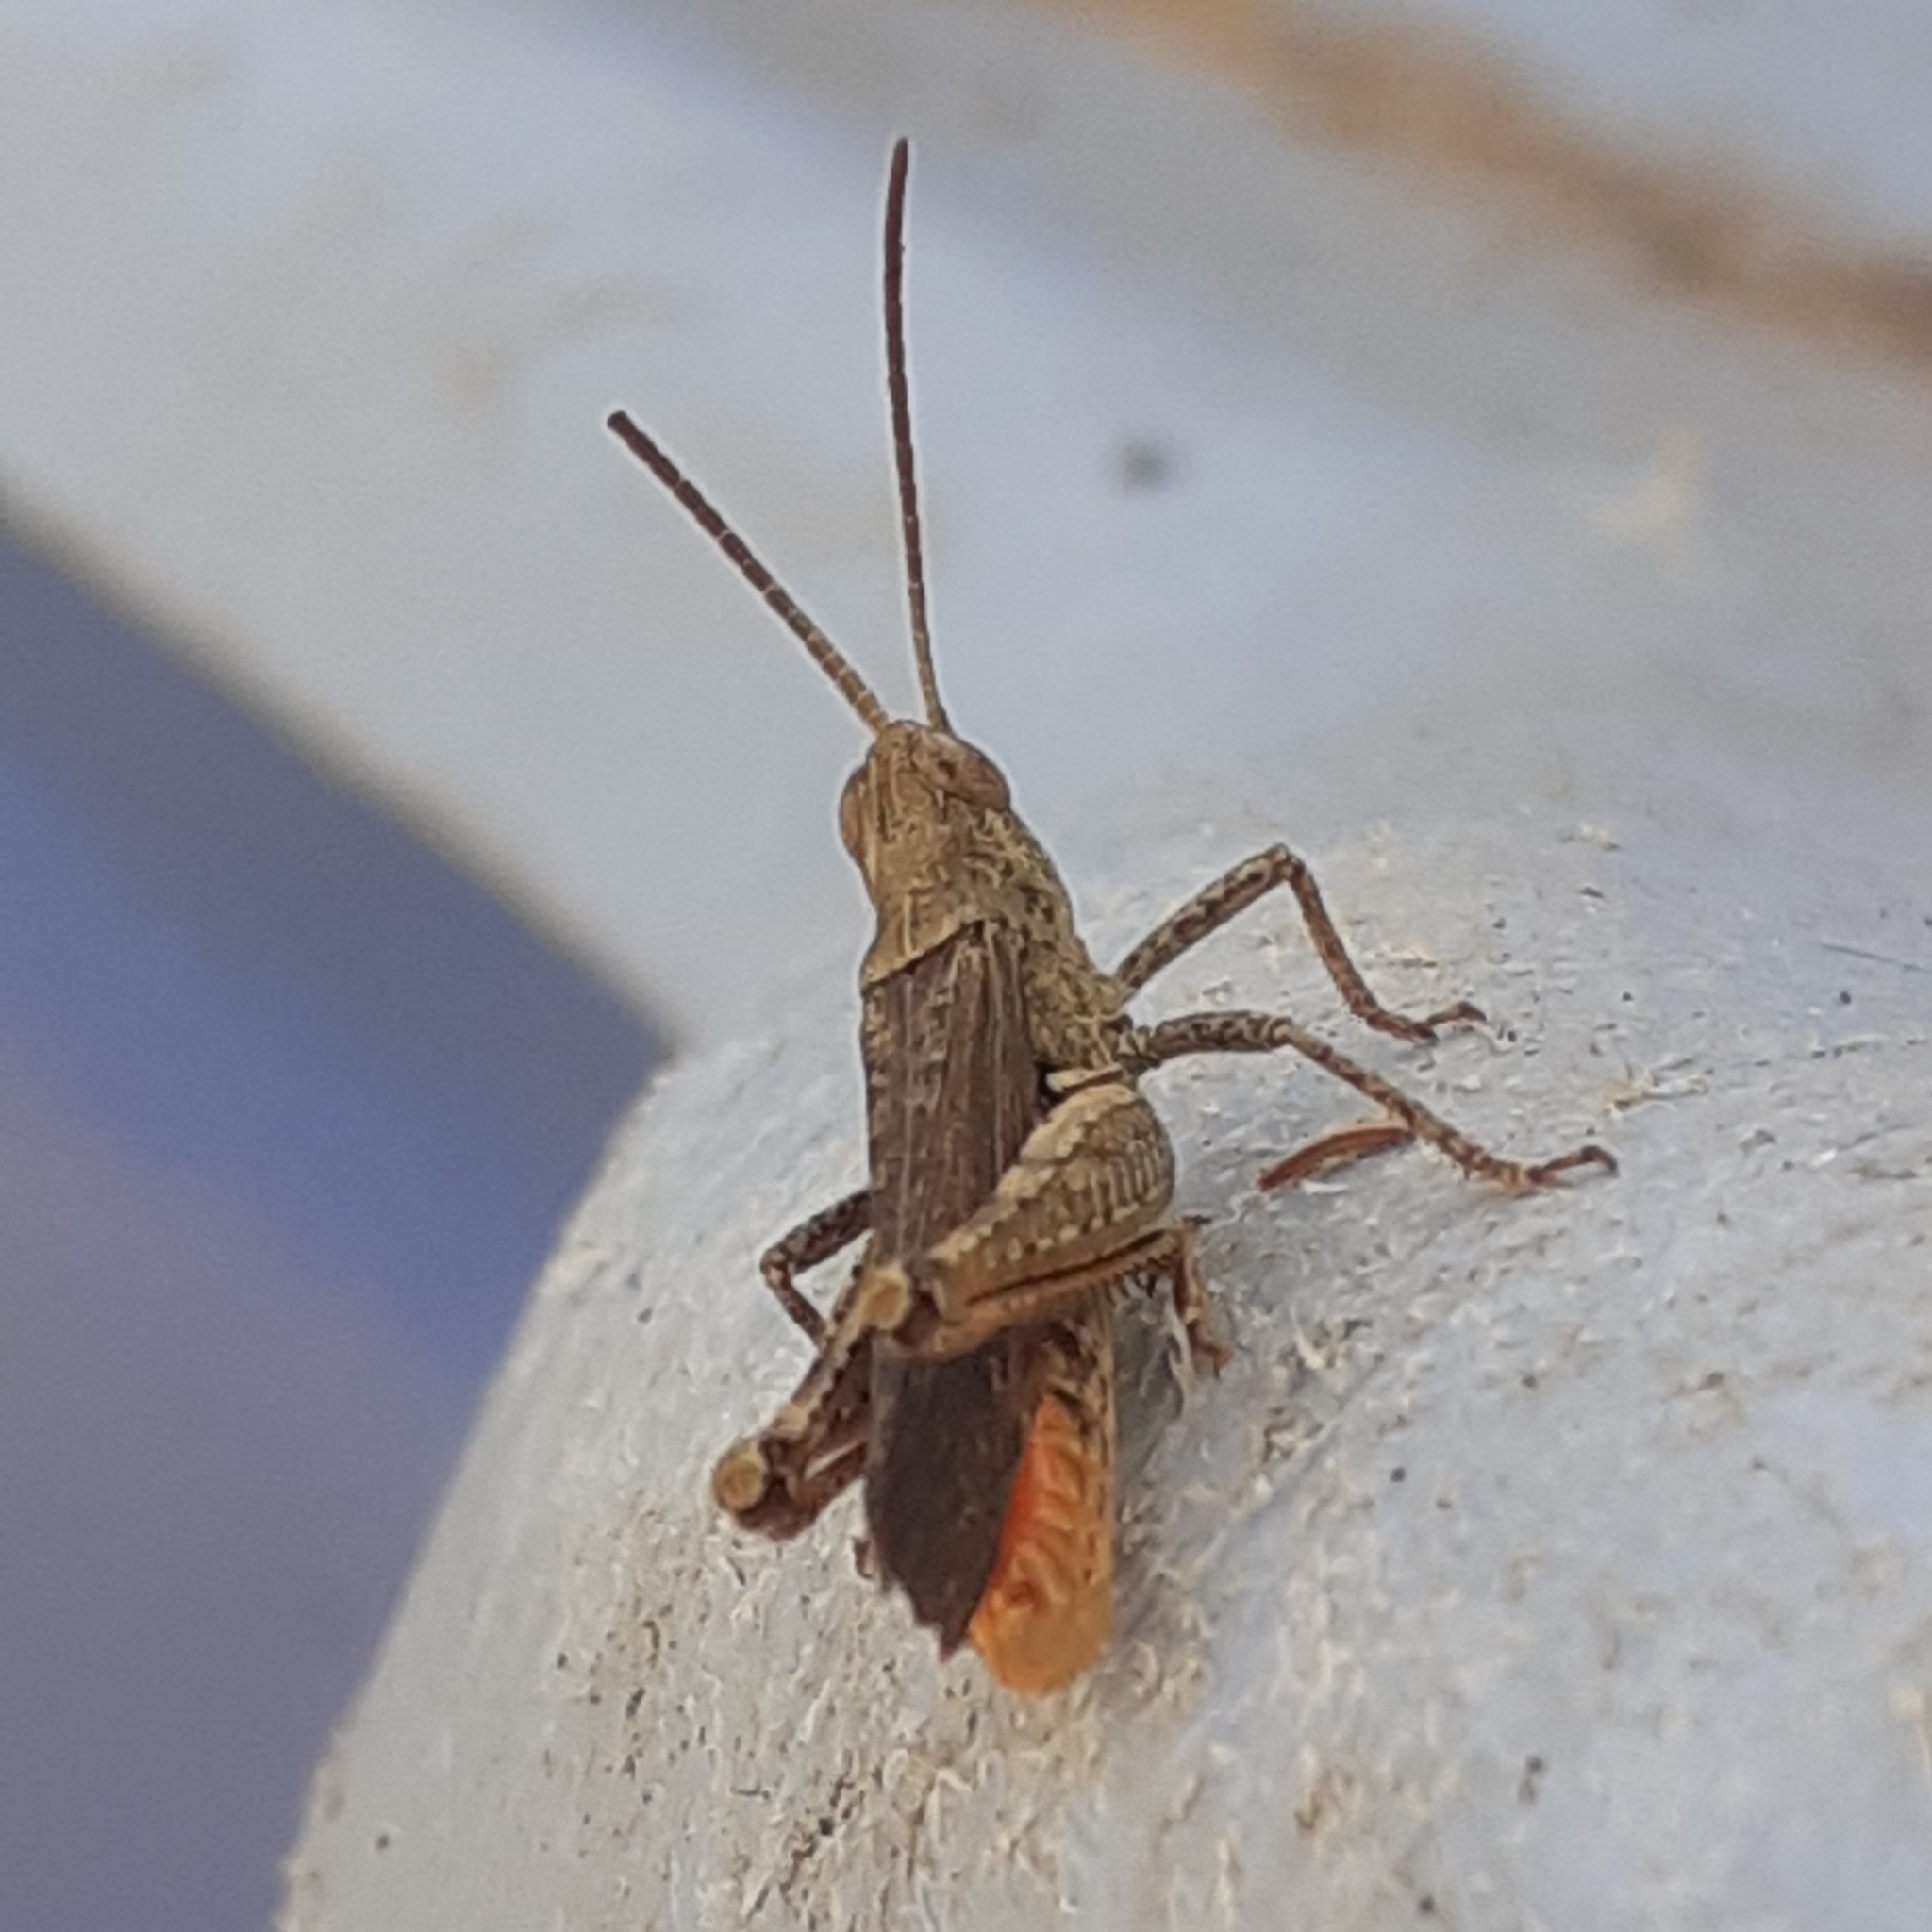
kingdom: Animalia
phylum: Arthropoda
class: Insecta
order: Orthoptera
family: Acrididae
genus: Chorthippus
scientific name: Chorthippus brunneus
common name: Field grasshopper
